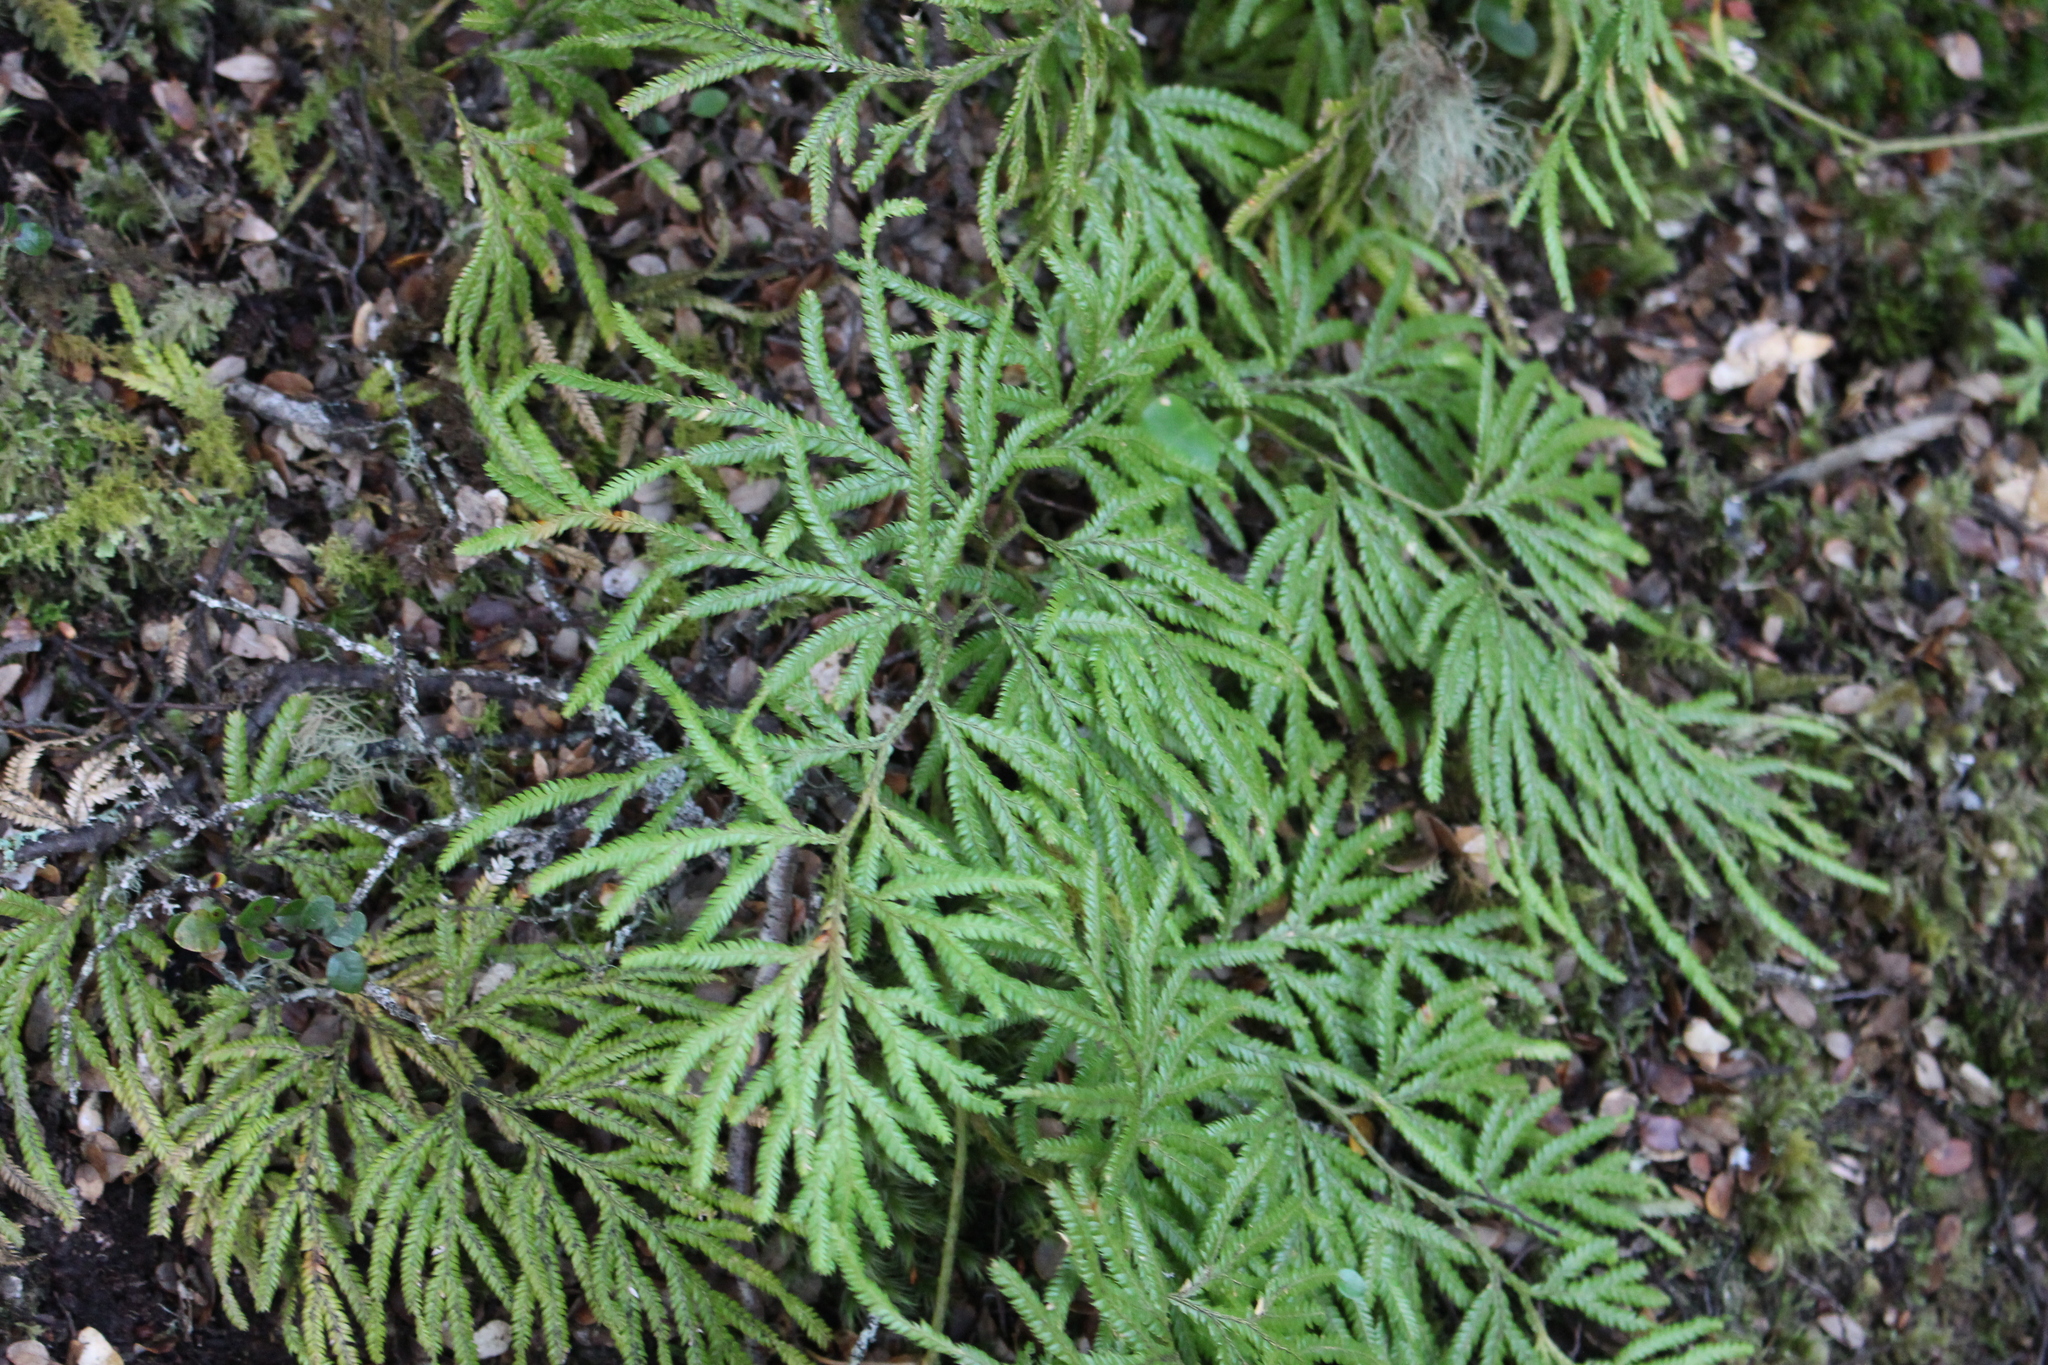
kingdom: Plantae
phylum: Tracheophyta
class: Lycopodiopsida
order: Lycopodiales
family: Lycopodiaceae
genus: Lycopodium
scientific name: Lycopodium volubile
